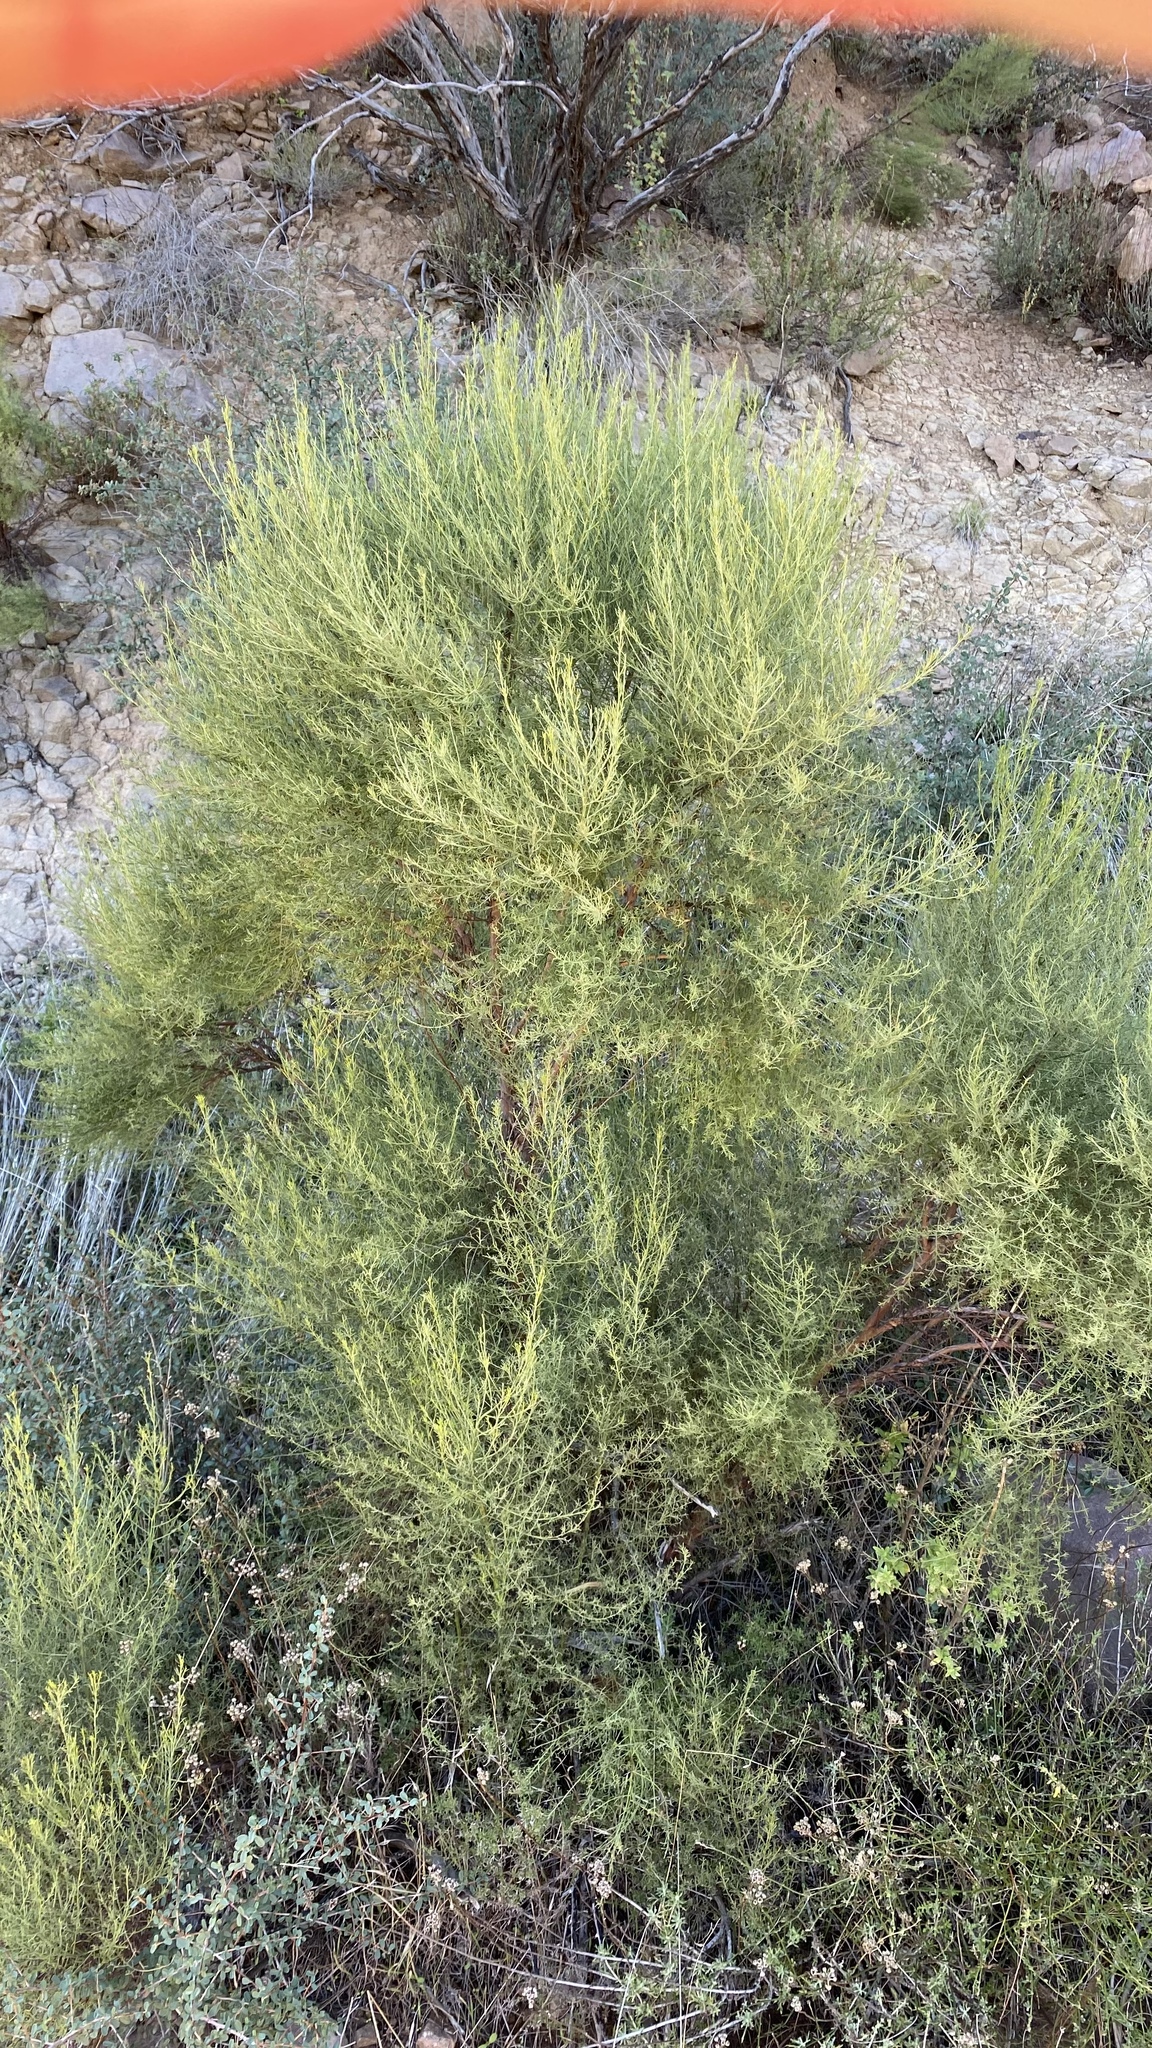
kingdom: Plantae
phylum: Tracheophyta
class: Magnoliopsida
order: Rosales
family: Rosaceae
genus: Adenostoma
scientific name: Adenostoma sparsifolium
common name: Red shank
